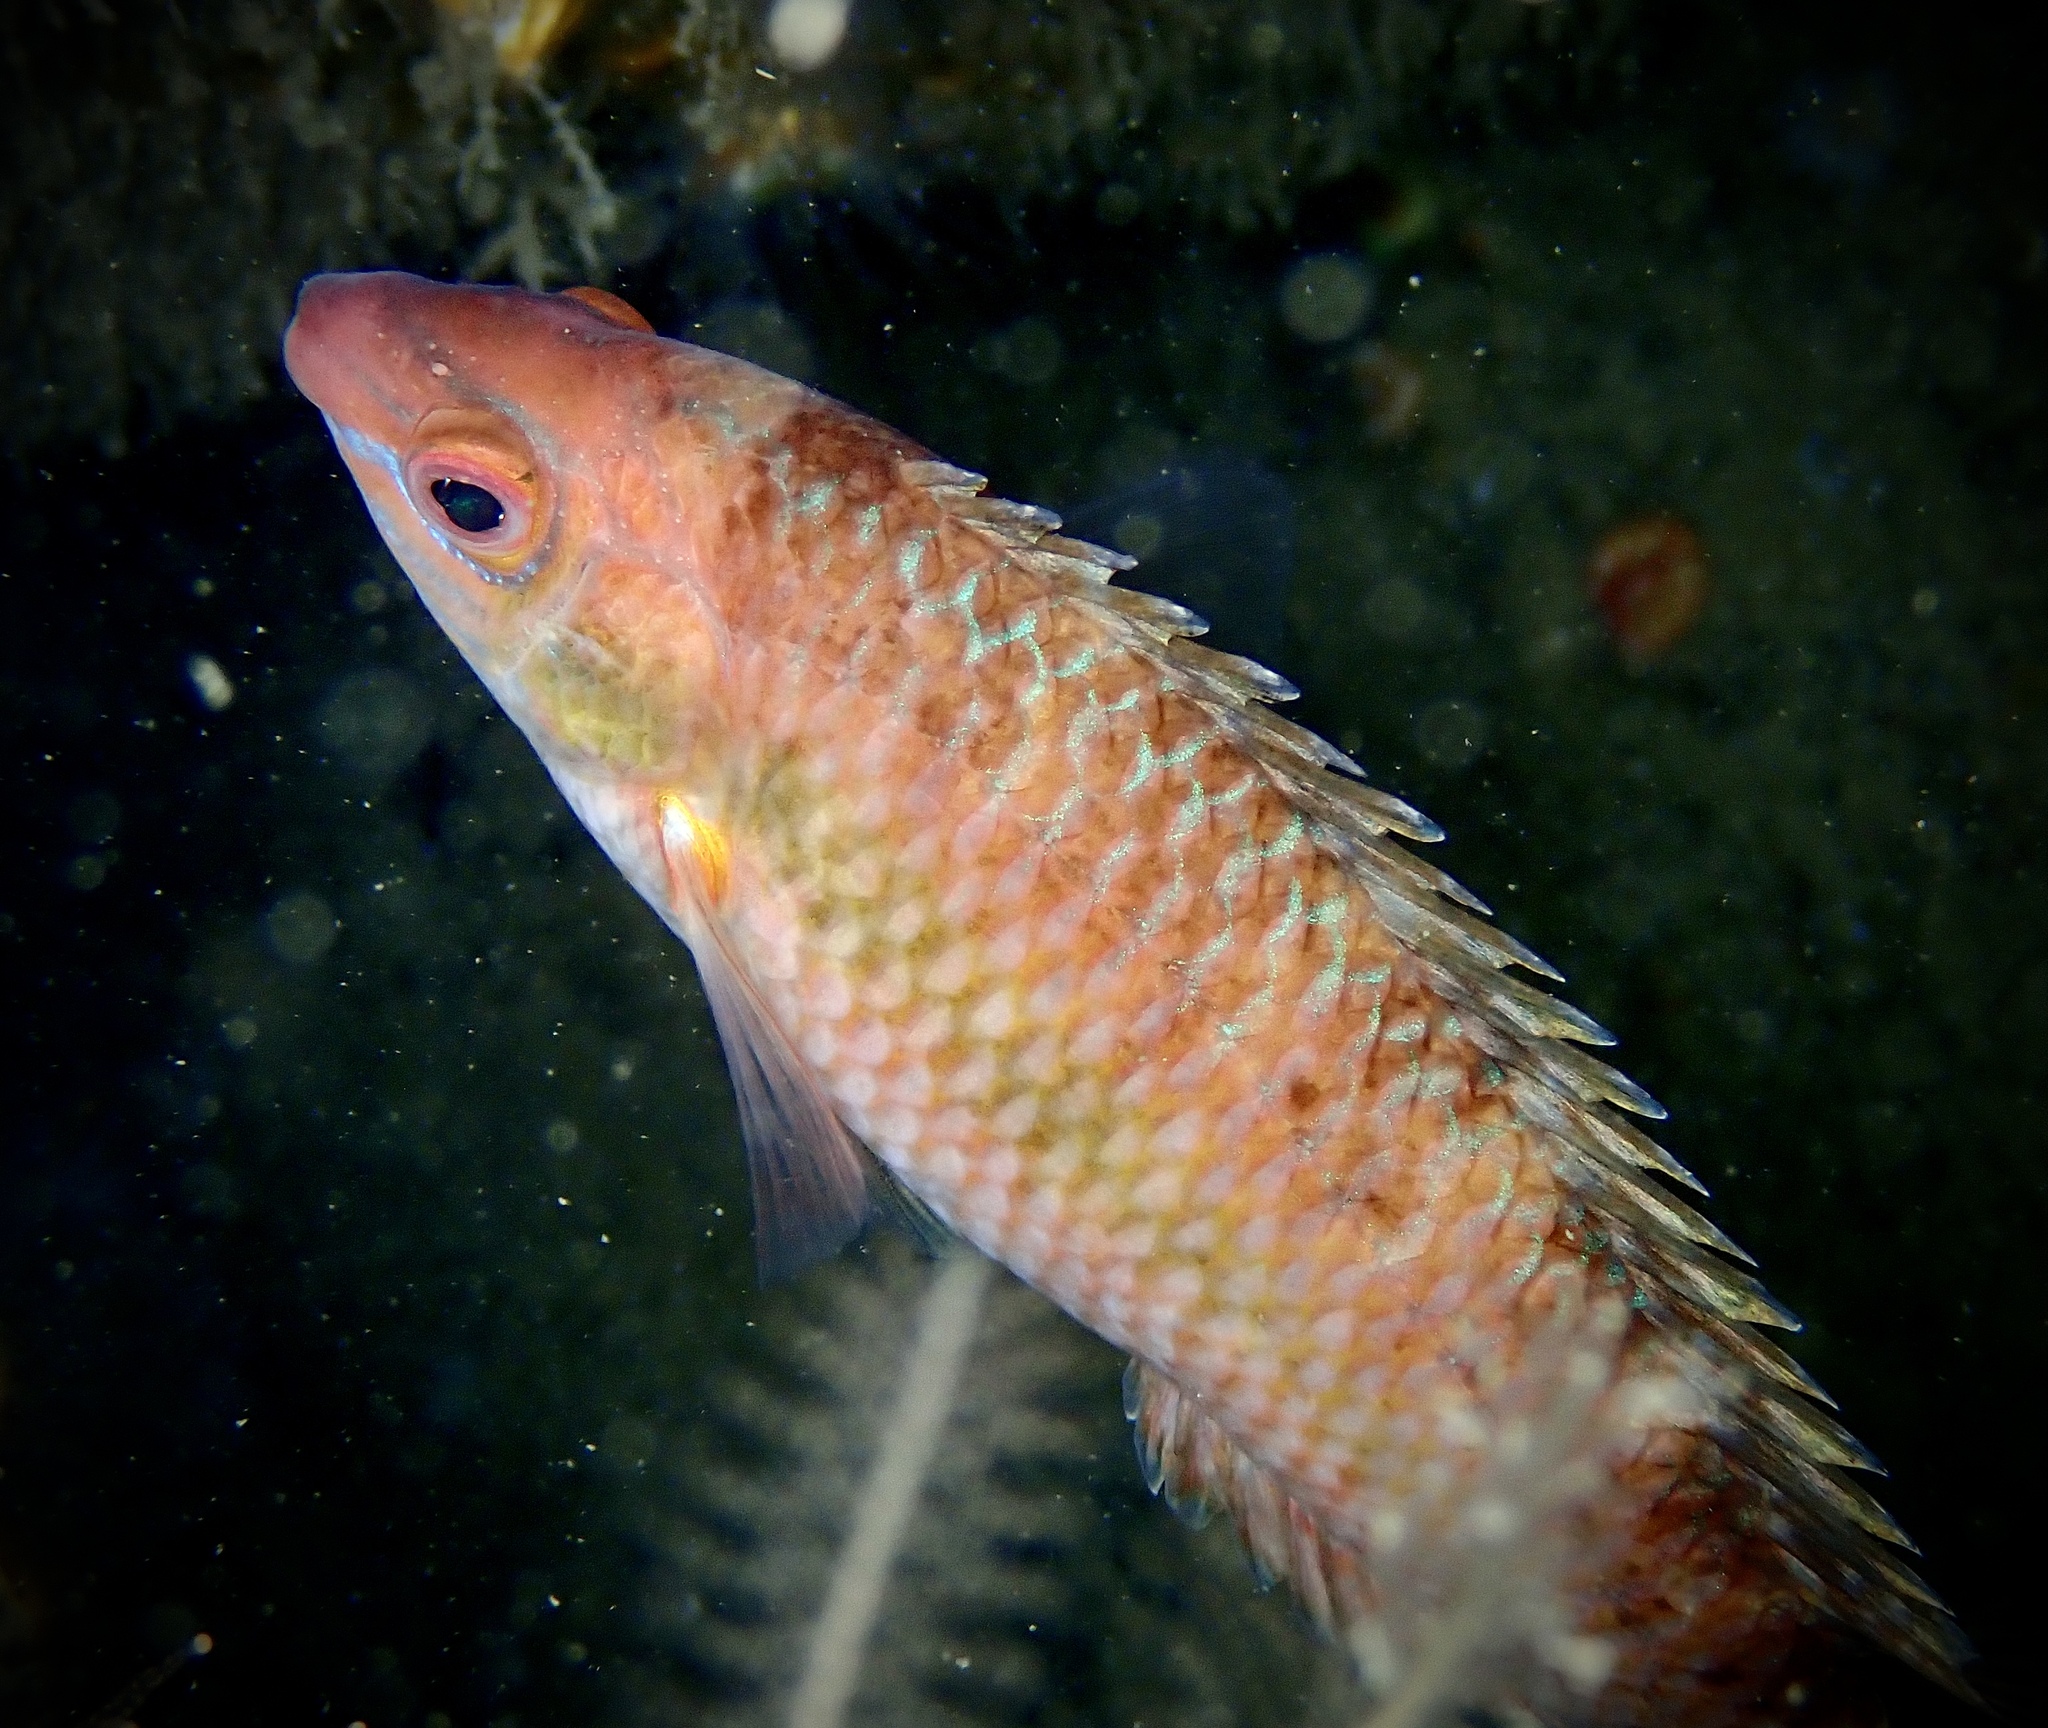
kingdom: Animalia
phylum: Chordata
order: Perciformes
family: Labridae
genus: Centrolabrus
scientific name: Centrolabrus exoletus
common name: Rock cook
